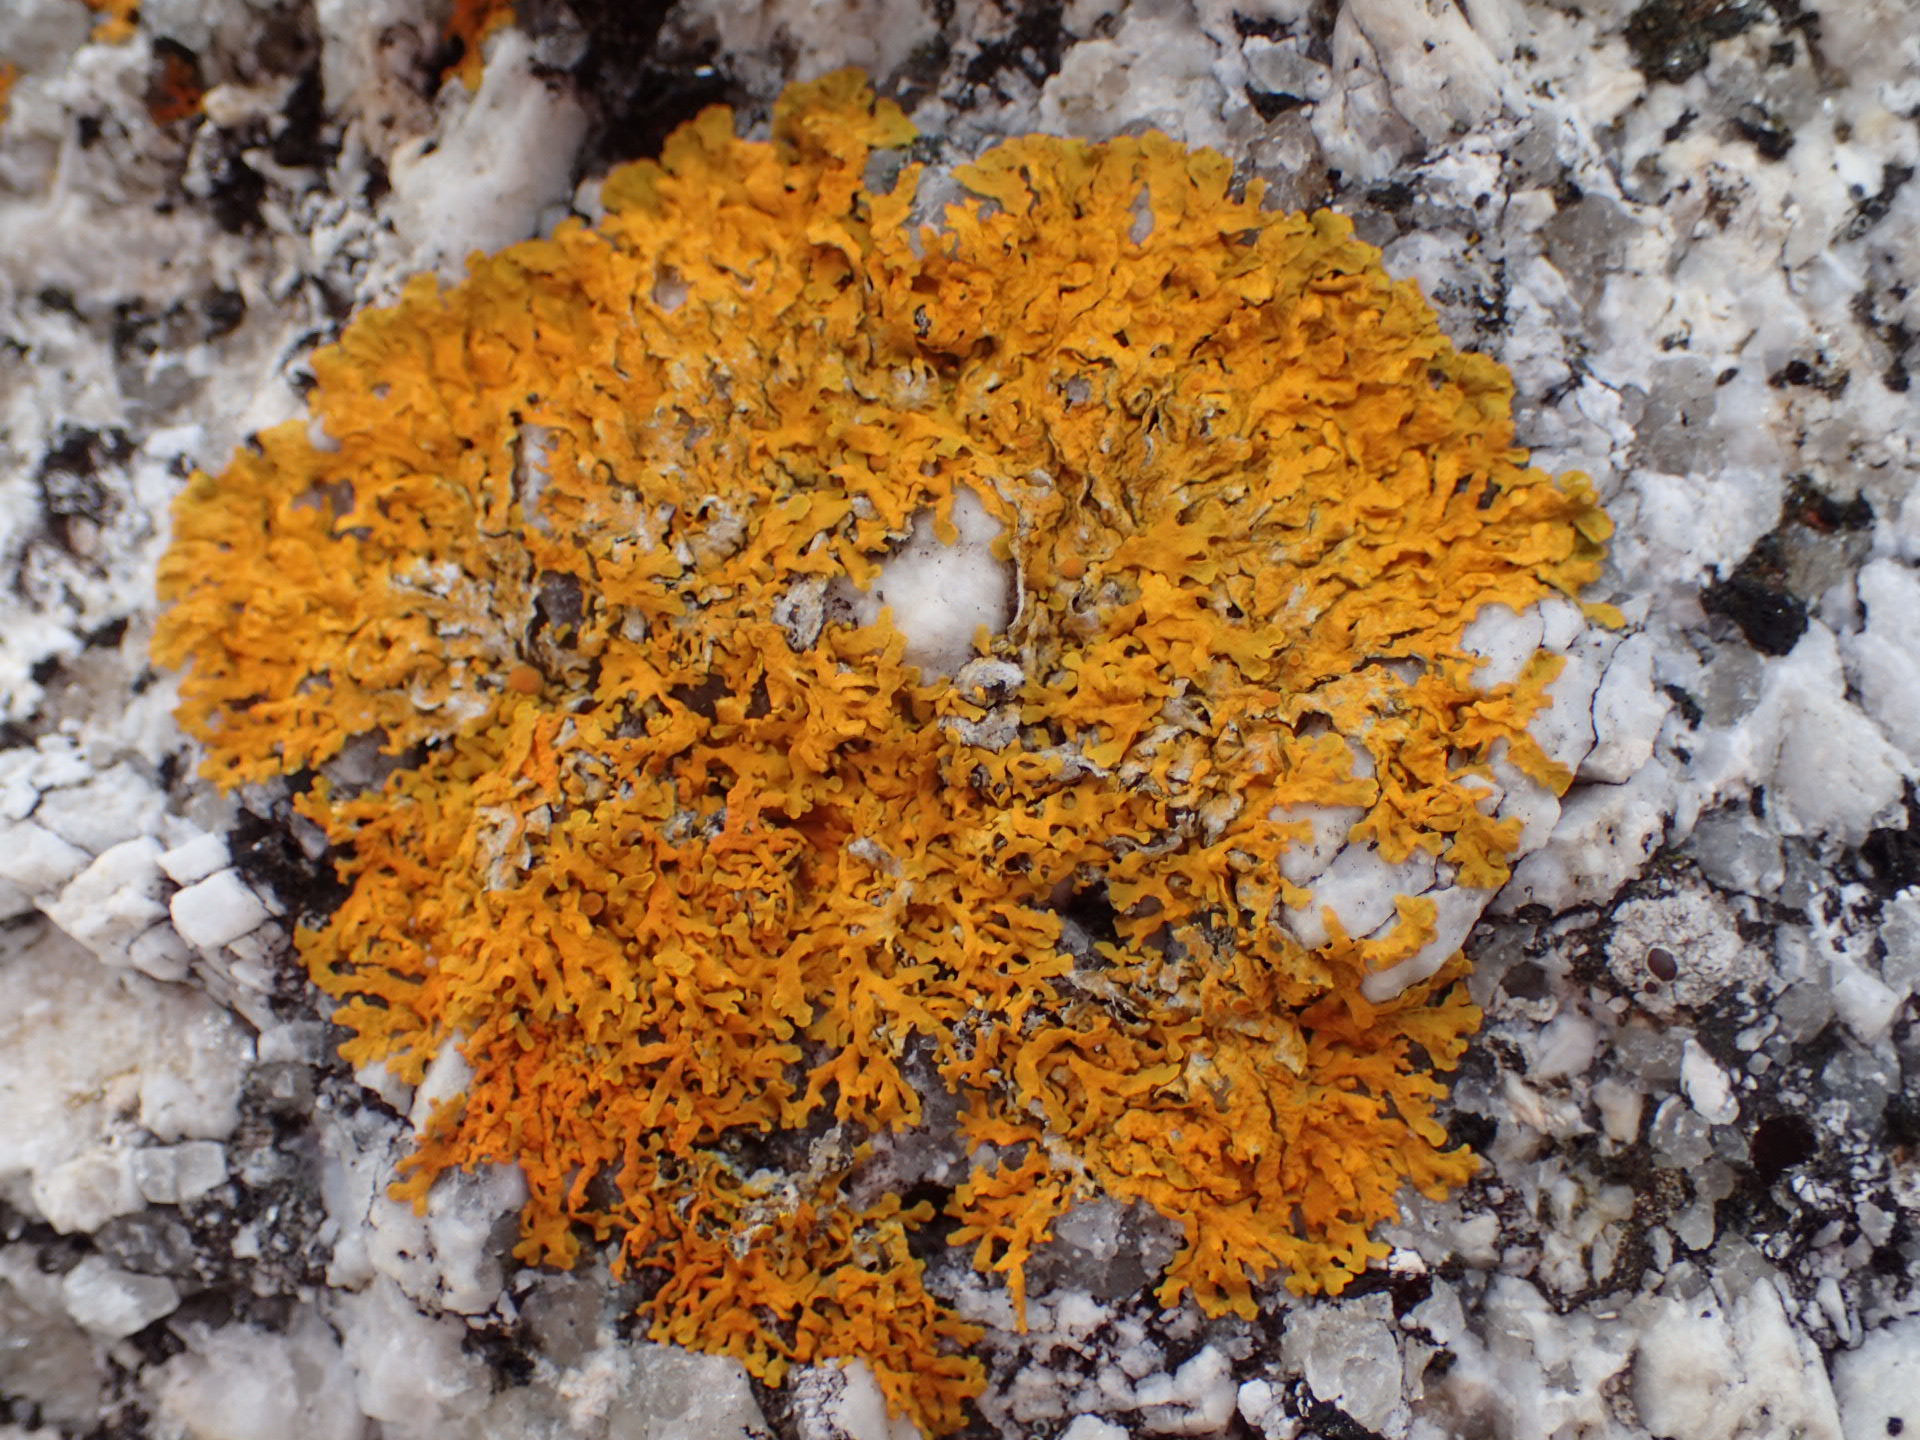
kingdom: Fungi
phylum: Ascomycota
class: Lecanoromycetes
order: Teloschistales
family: Teloschistaceae
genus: Xanthoria
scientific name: Xanthoria parietina
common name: Common orange lichen
